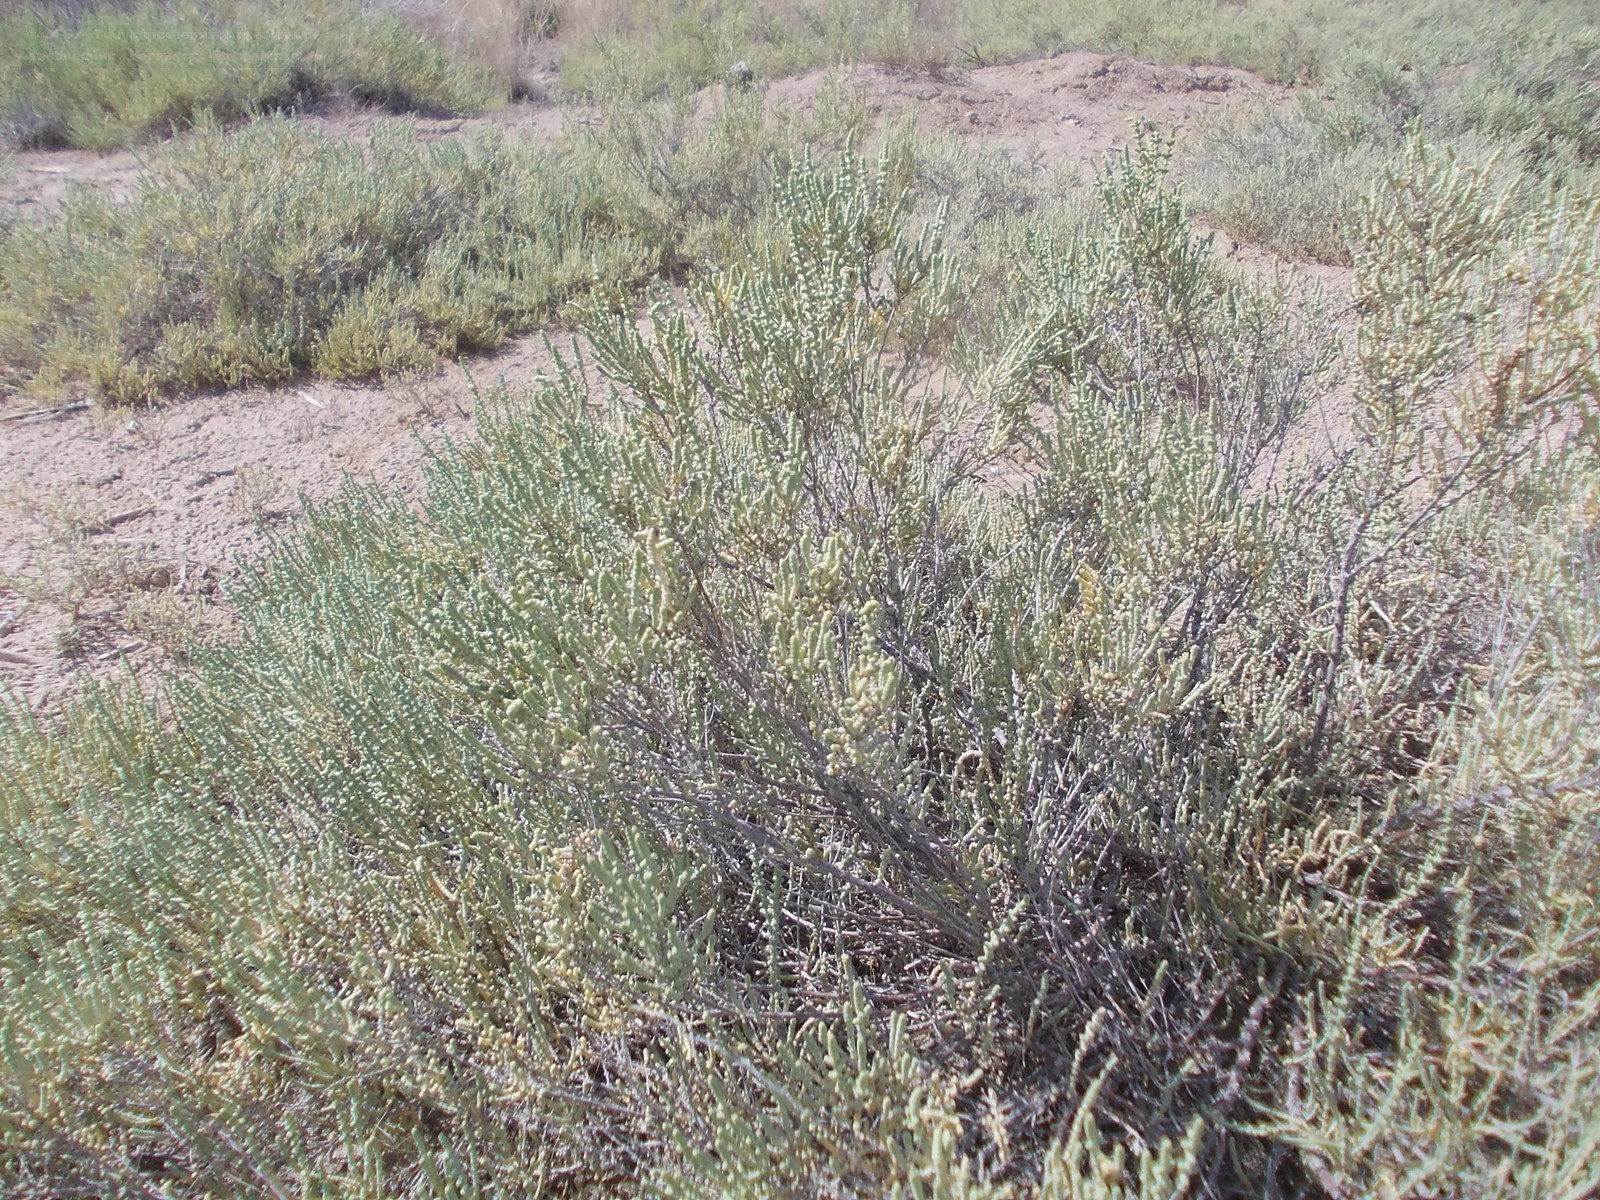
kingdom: Plantae
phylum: Tracheophyta
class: Magnoliopsida
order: Caryophyllales
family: Amaranthaceae
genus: Halocnemum
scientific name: Halocnemum strobilaceum
